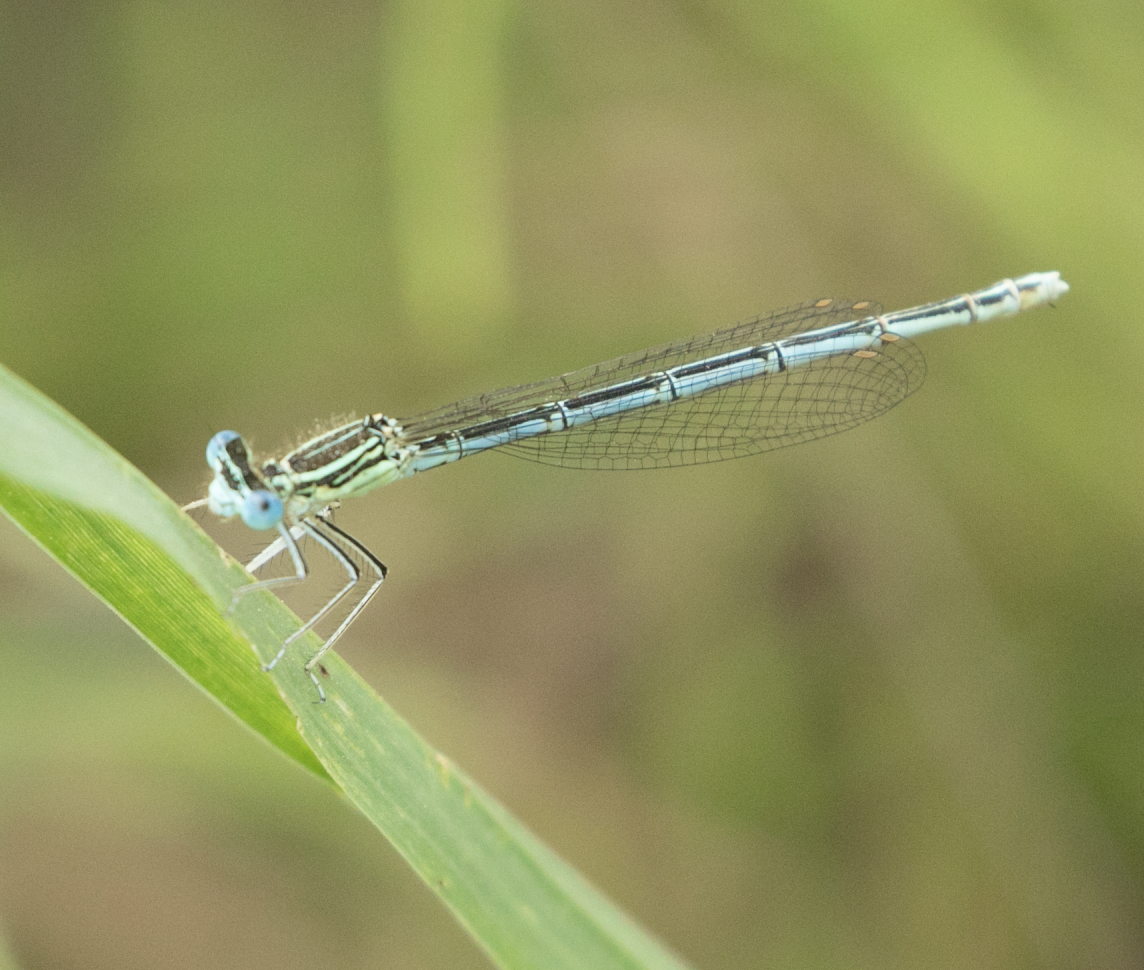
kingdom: Animalia
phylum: Arthropoda
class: Insecta
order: Odonata
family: Platycnemididae
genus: Platycnemis
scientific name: Platycnemis pennipes
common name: White-legged damselfly
